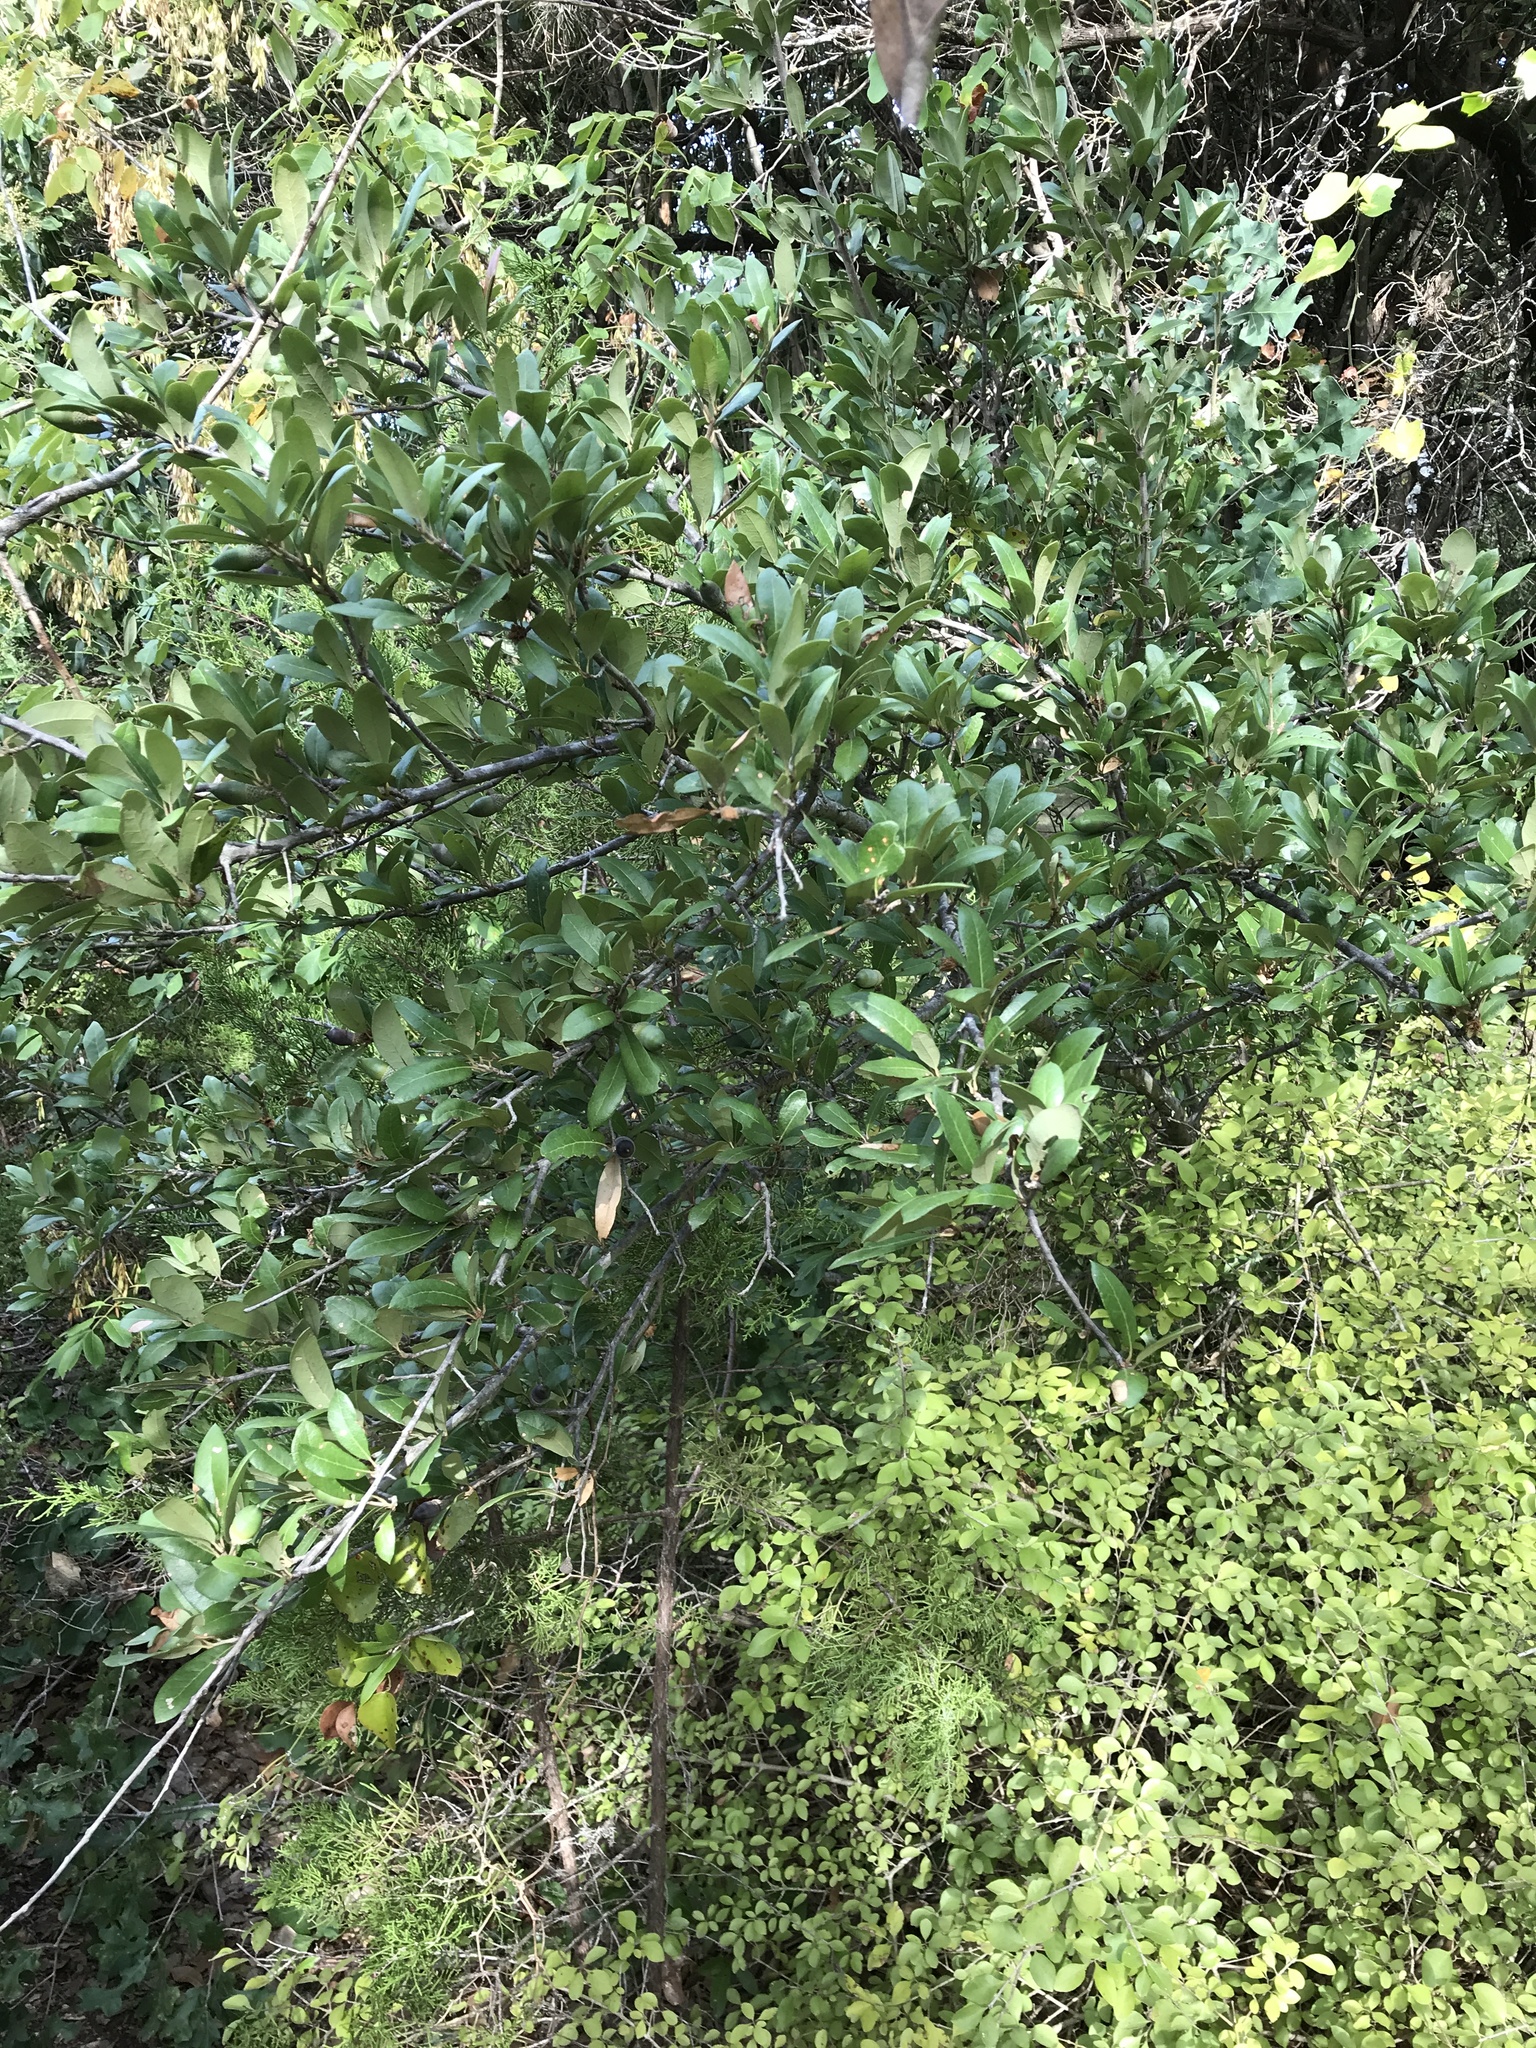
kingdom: Plantae
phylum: Tracheophyta
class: Magnoliopsida
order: Fagales
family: Fagaceae
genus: Quercus
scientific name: Quercus fusiformis
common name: Texas live oak
